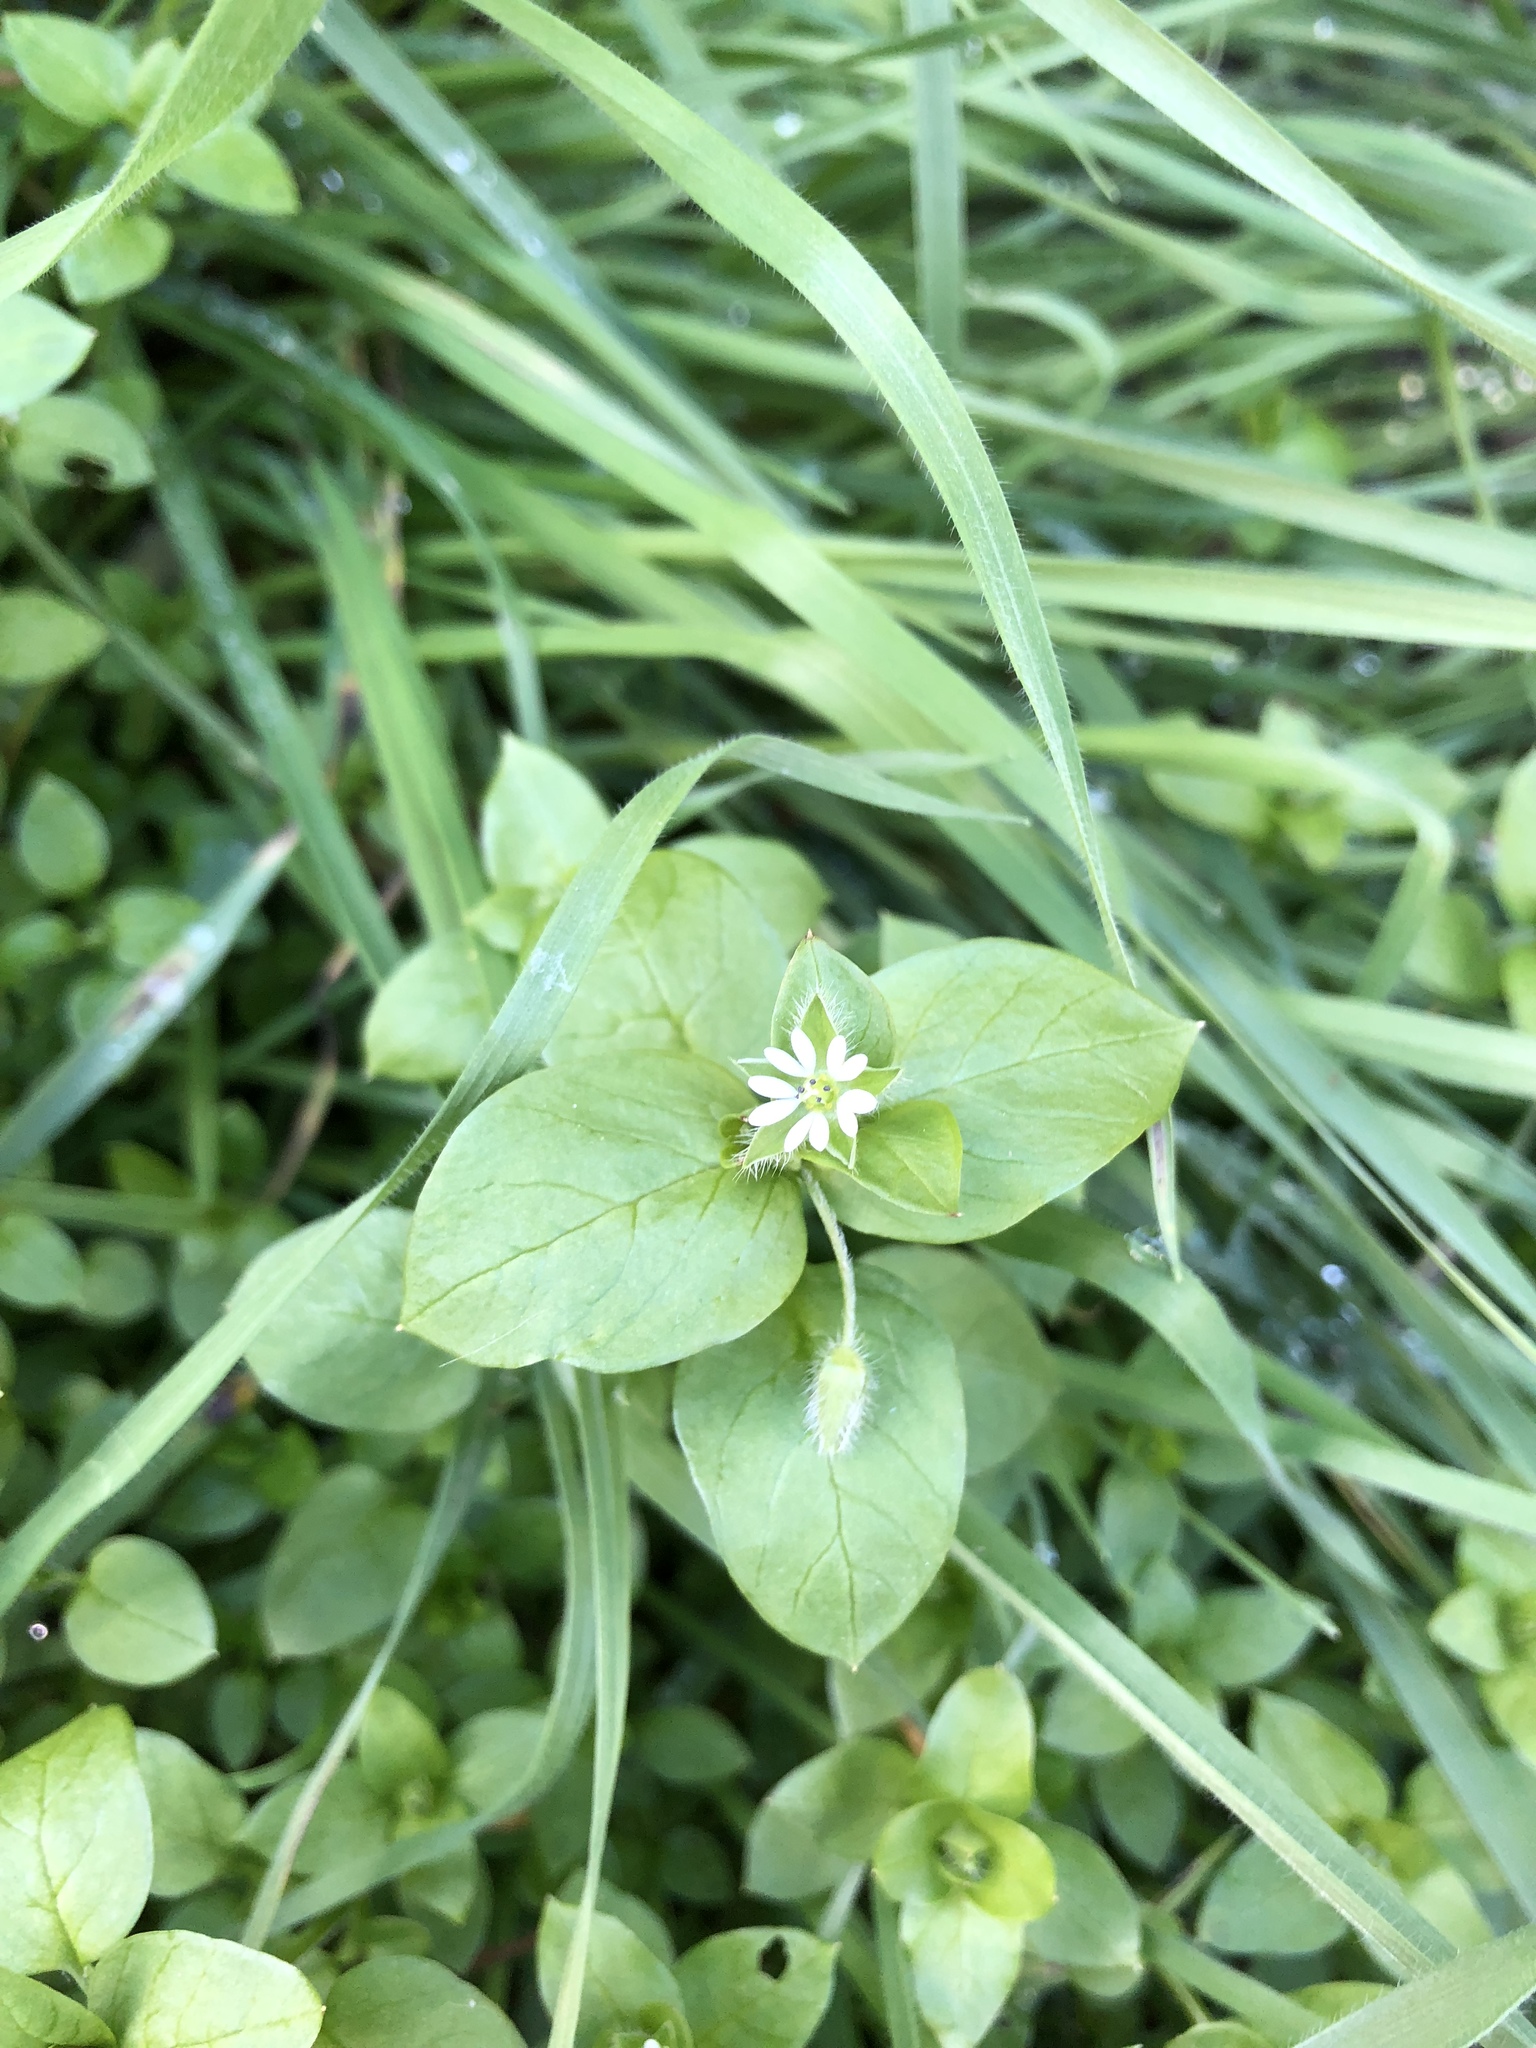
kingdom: Plantae
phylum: Tracheophyta
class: Magnoliopsida
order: Caryophyllales
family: Caryophyllaceae
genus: Stellaria
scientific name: Stellaria media
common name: Common chickweed
